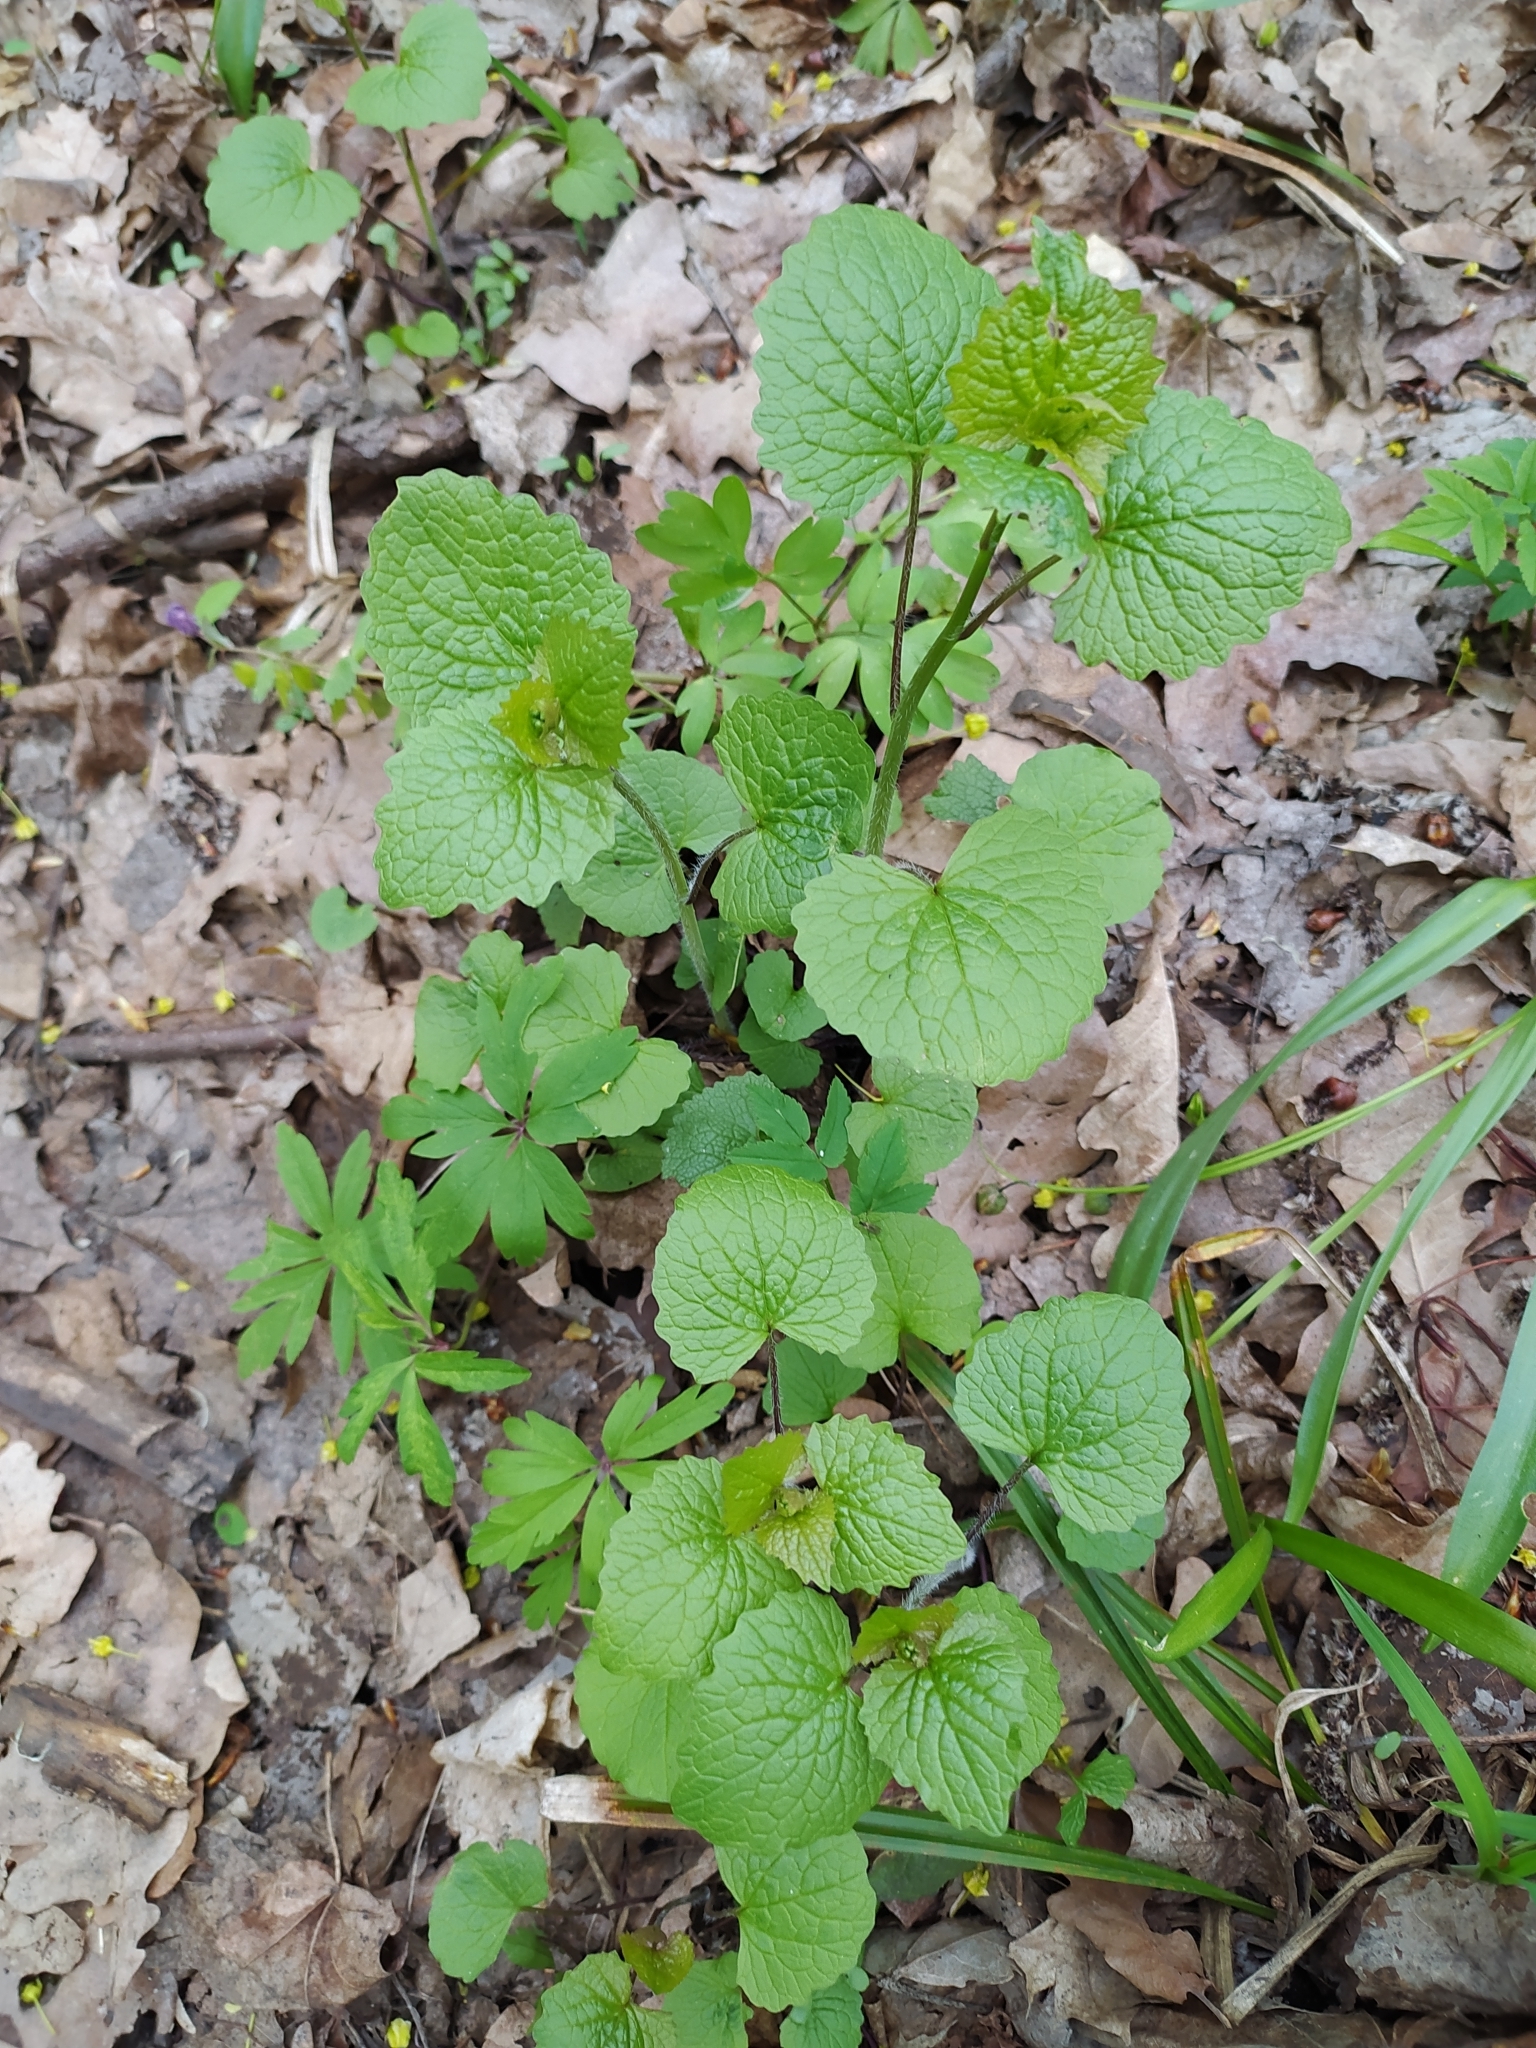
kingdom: Plantae
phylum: Tracheophyta
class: Magnoliopsida
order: Brassicales
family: Brassicaceae
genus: Alliaria
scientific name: Alliaria petiolata
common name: Garlic mustard
